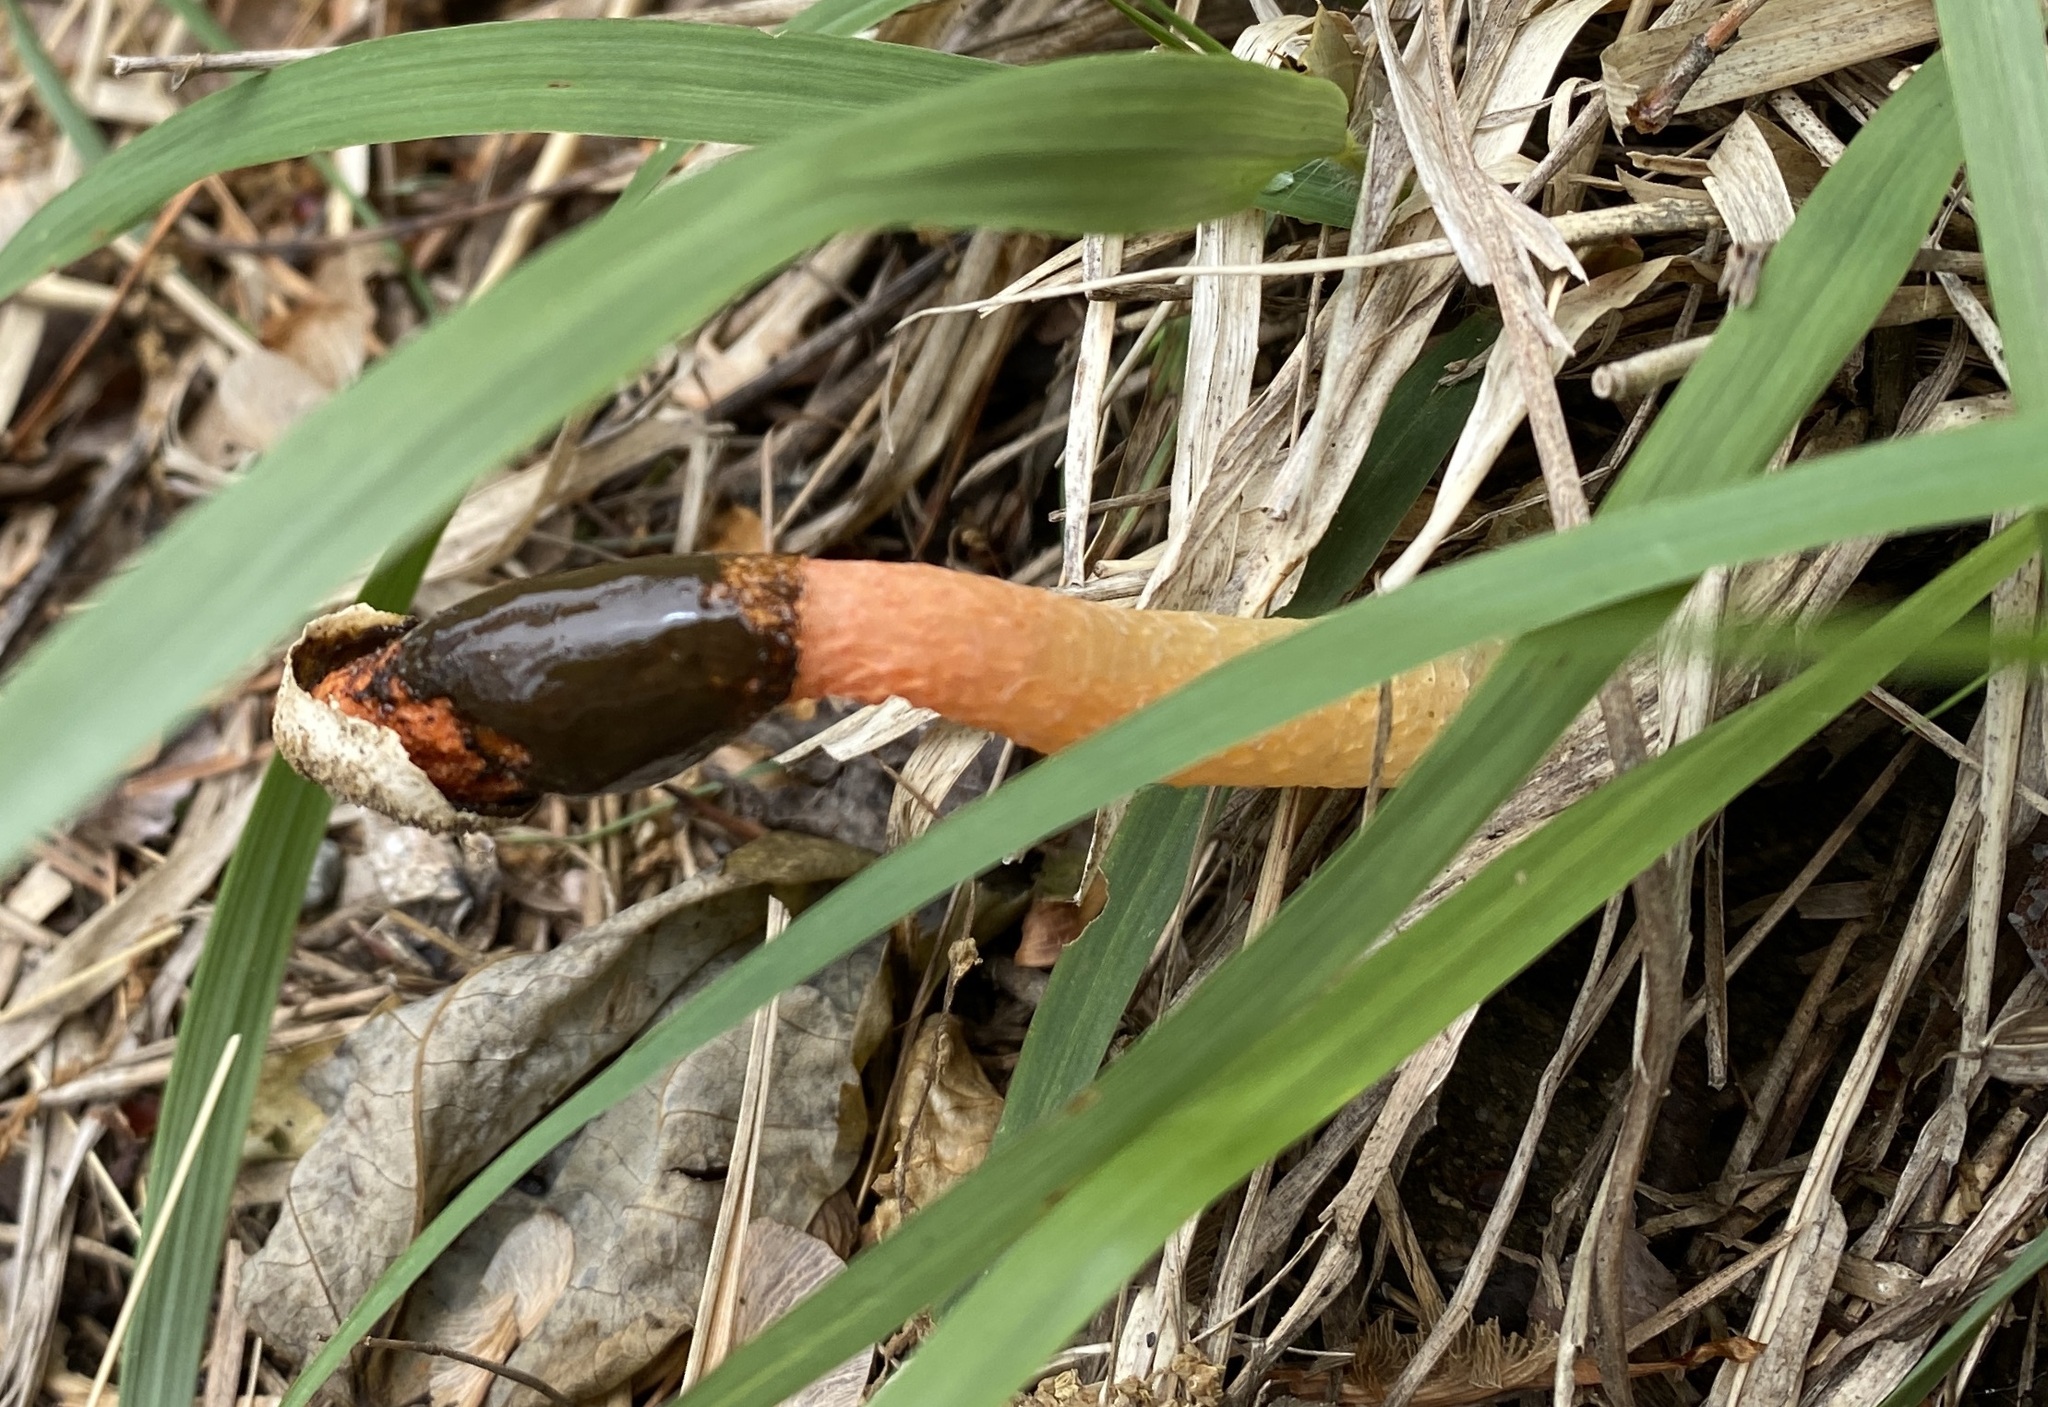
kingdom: Fungi
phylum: Basidiomycota
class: Agaricomycetes
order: Phallales
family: Phallaceae
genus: Phallus
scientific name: Phallus rugulosus
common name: Wrinkly stinkhorn
